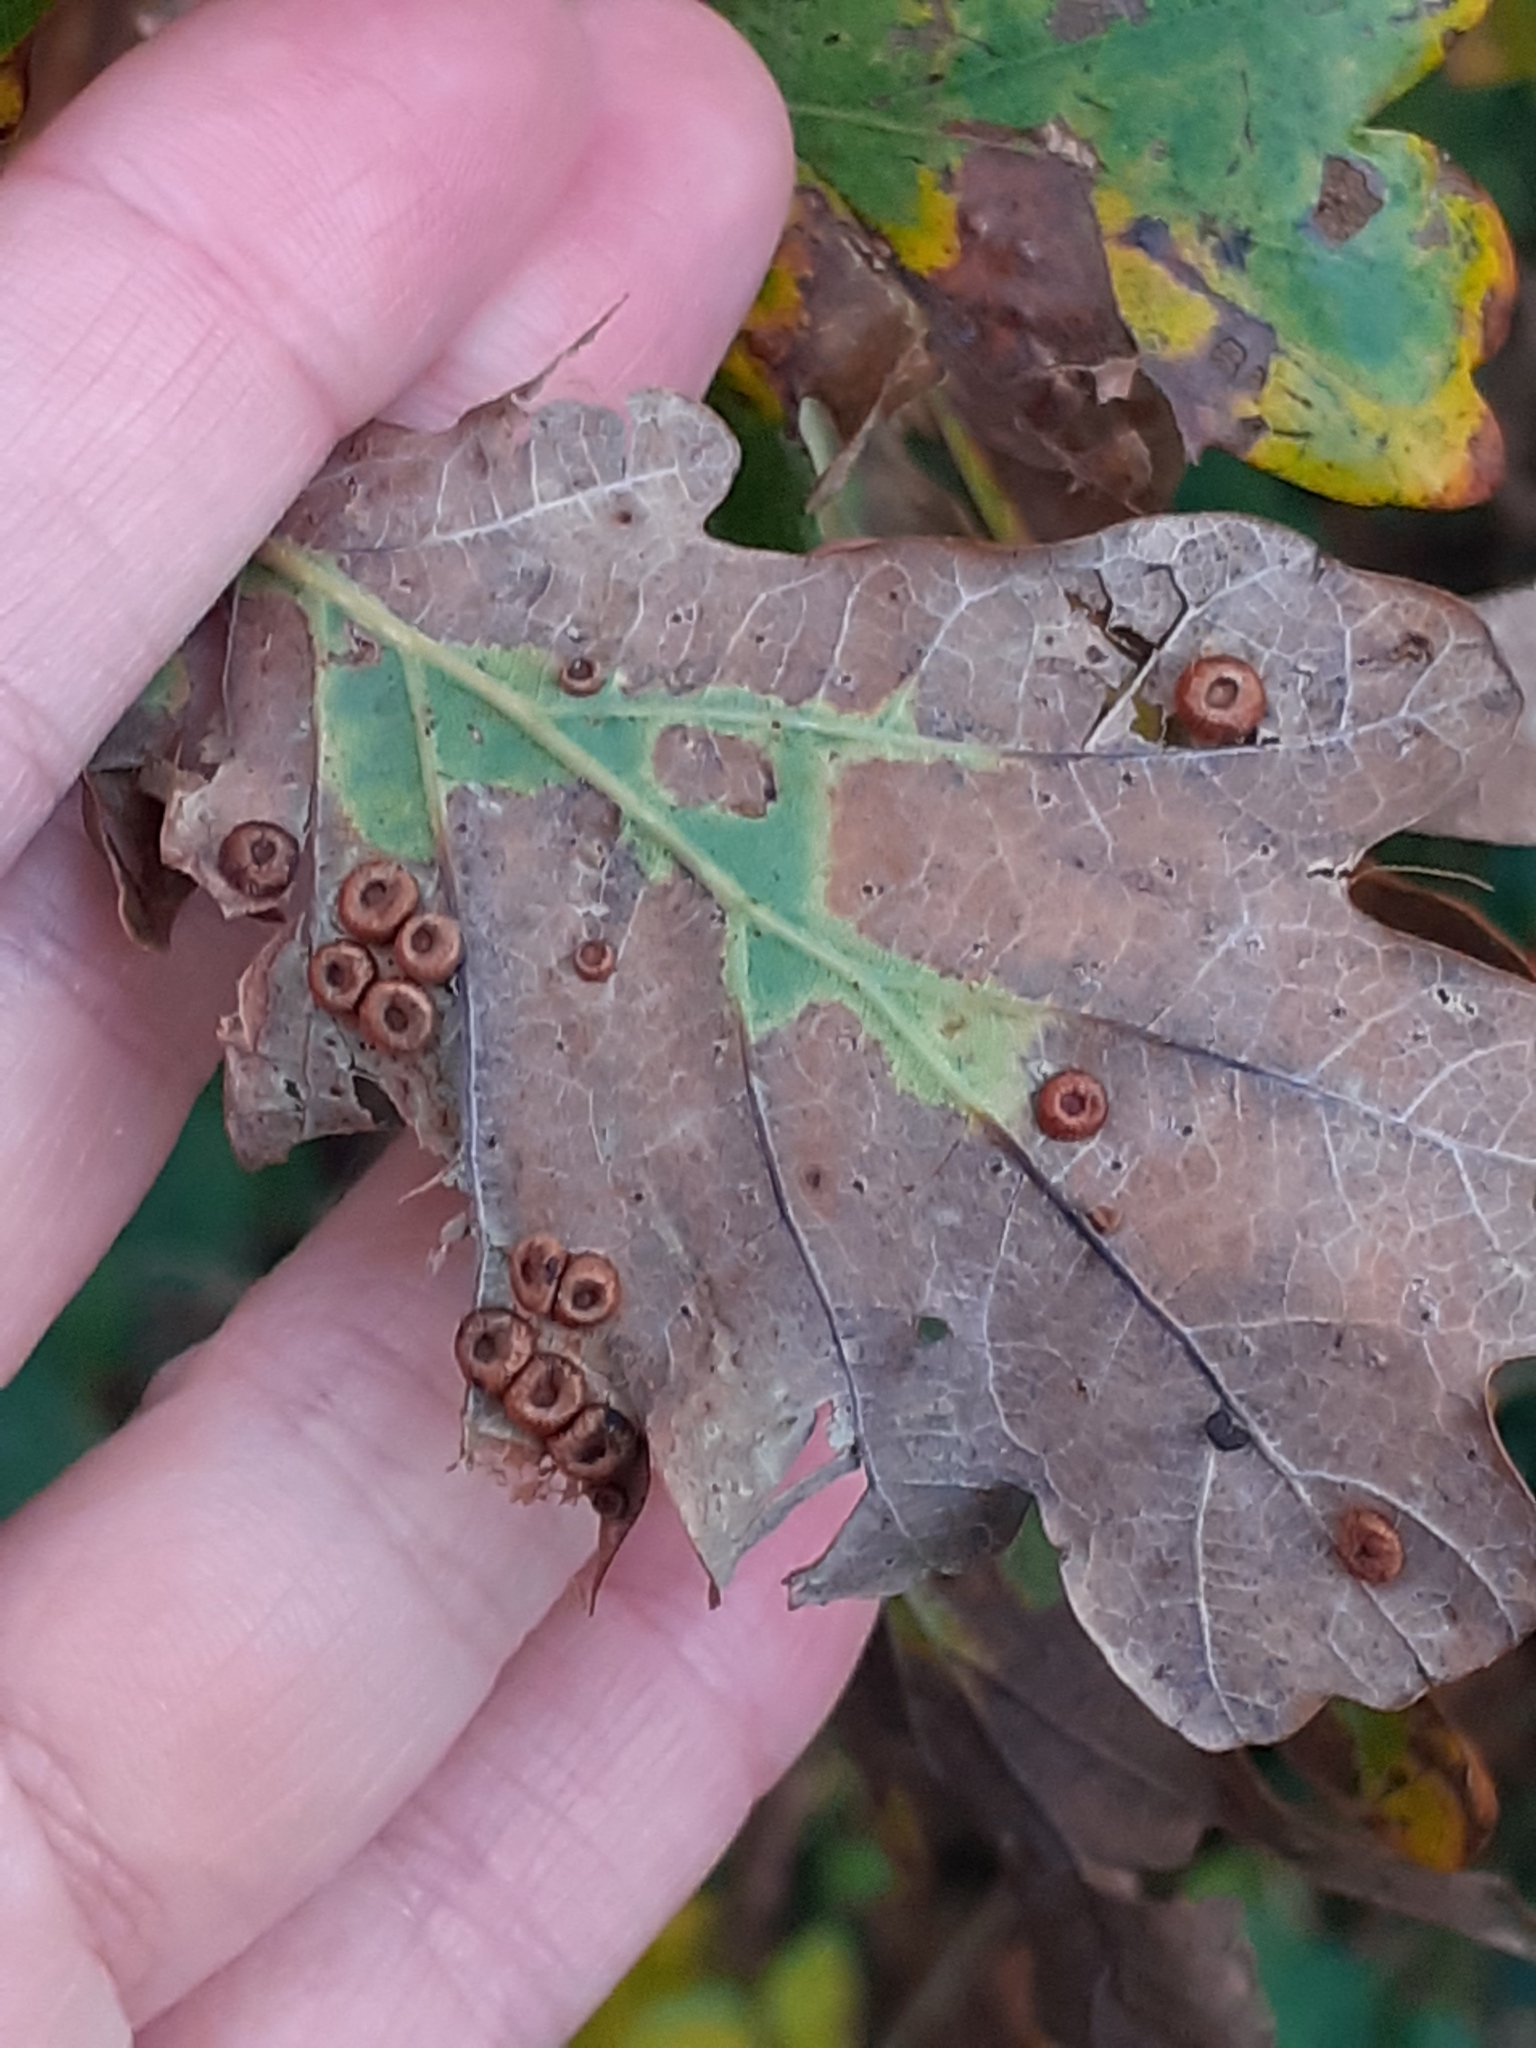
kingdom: Animalia
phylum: Arthropoda
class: Insecta
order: Hymenoptera
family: Cynipidae
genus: Neuroterus
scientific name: Neuroterus numismalis
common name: Silk-button spangle gall
